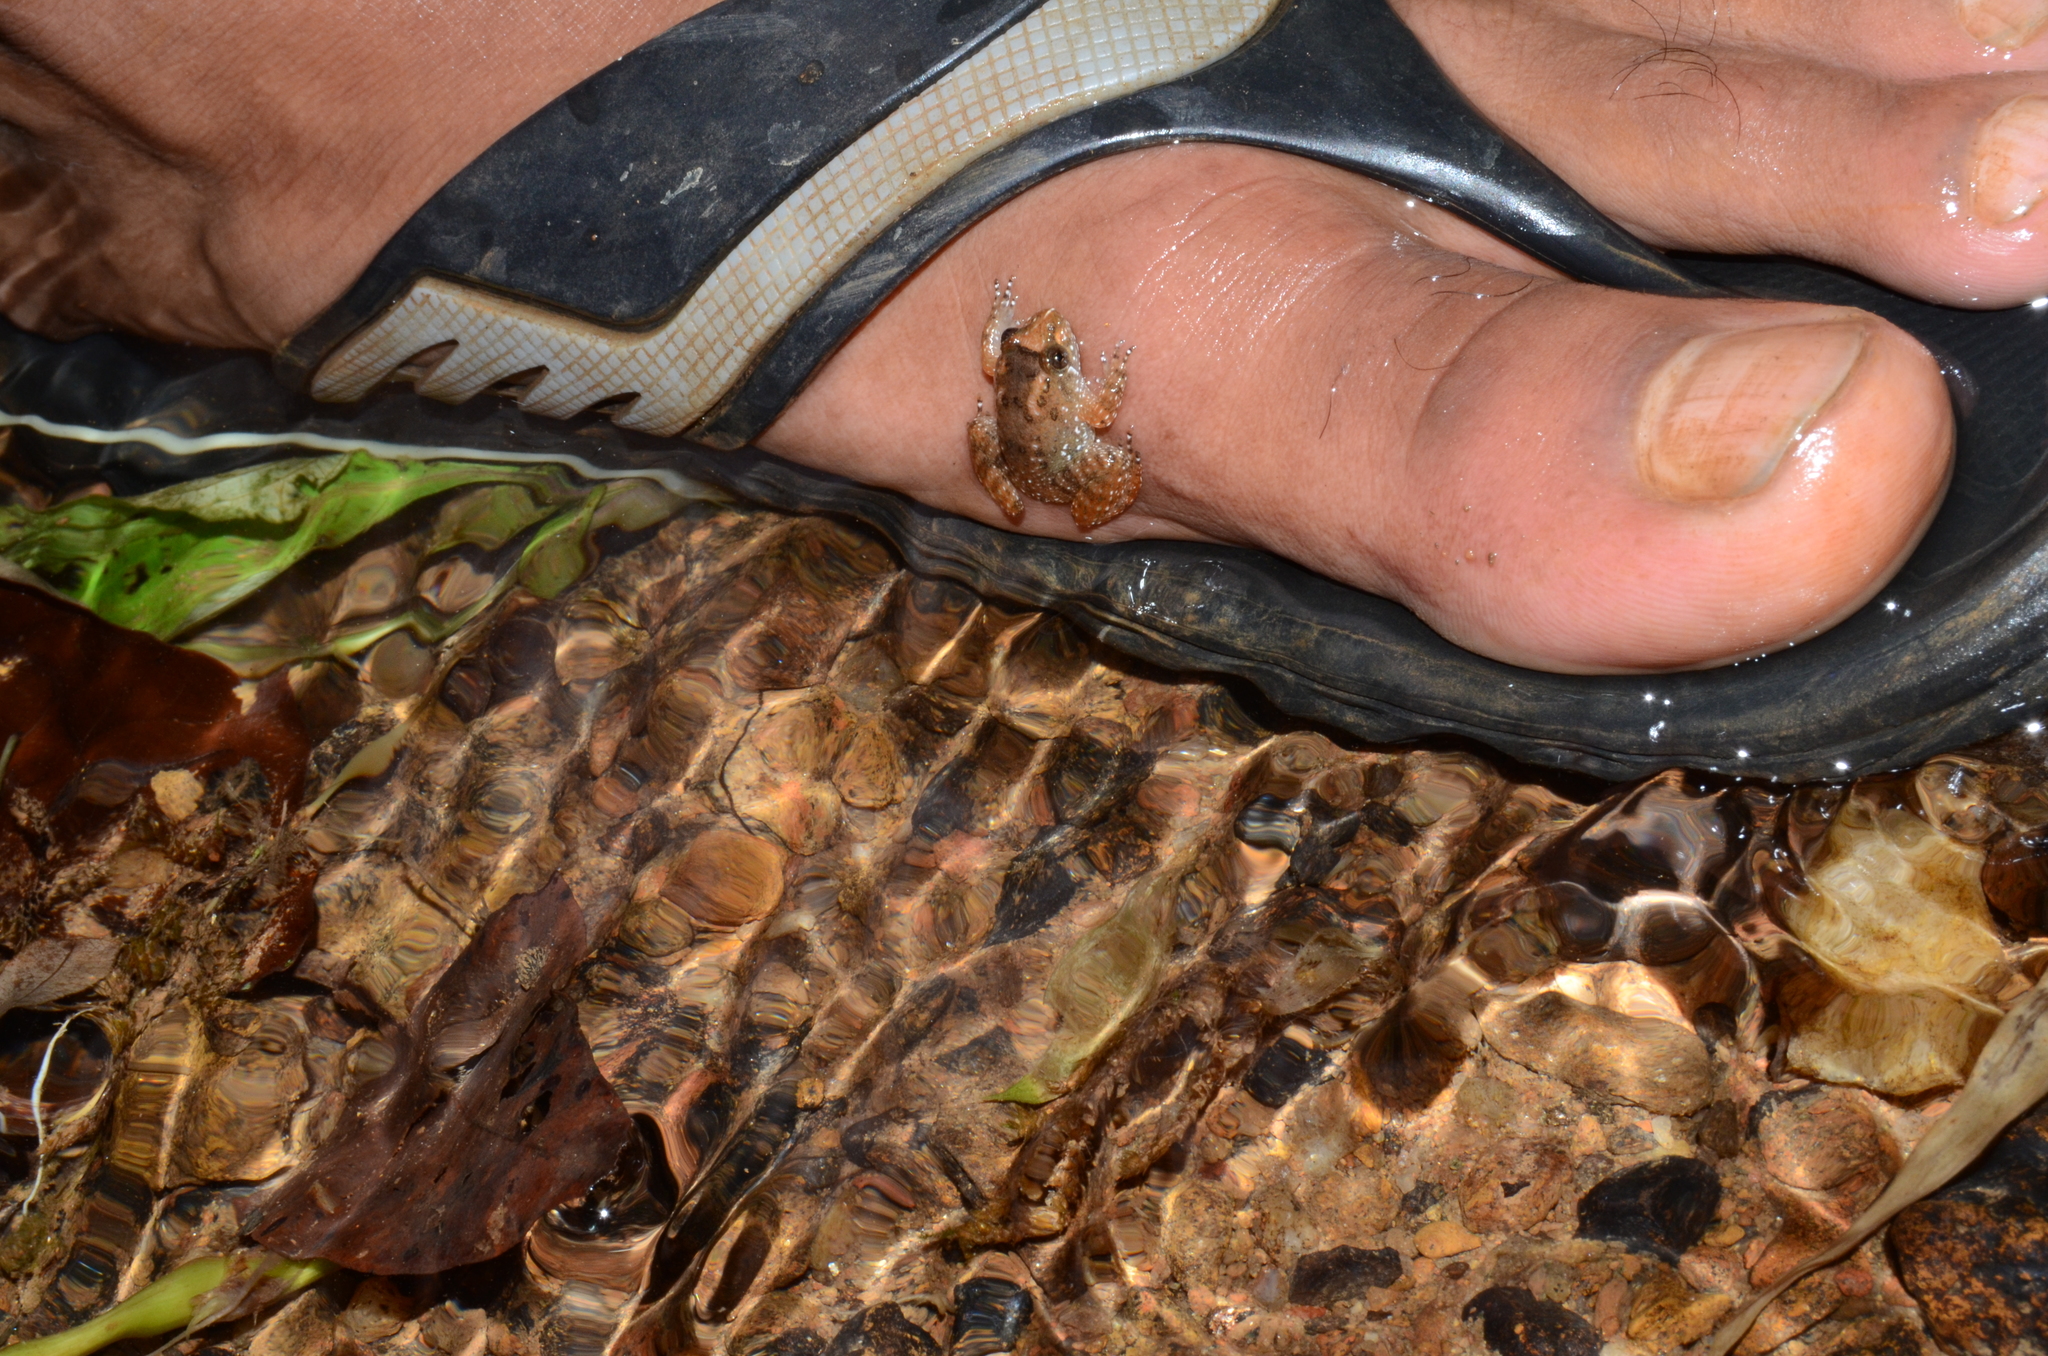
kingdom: Animalia
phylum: Chordata
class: Amphibia
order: Anura
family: Nyctibatrachidae
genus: Nyctibatrachus
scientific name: Nyctibatrachus kempholeyensis
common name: Kempholey night frog
